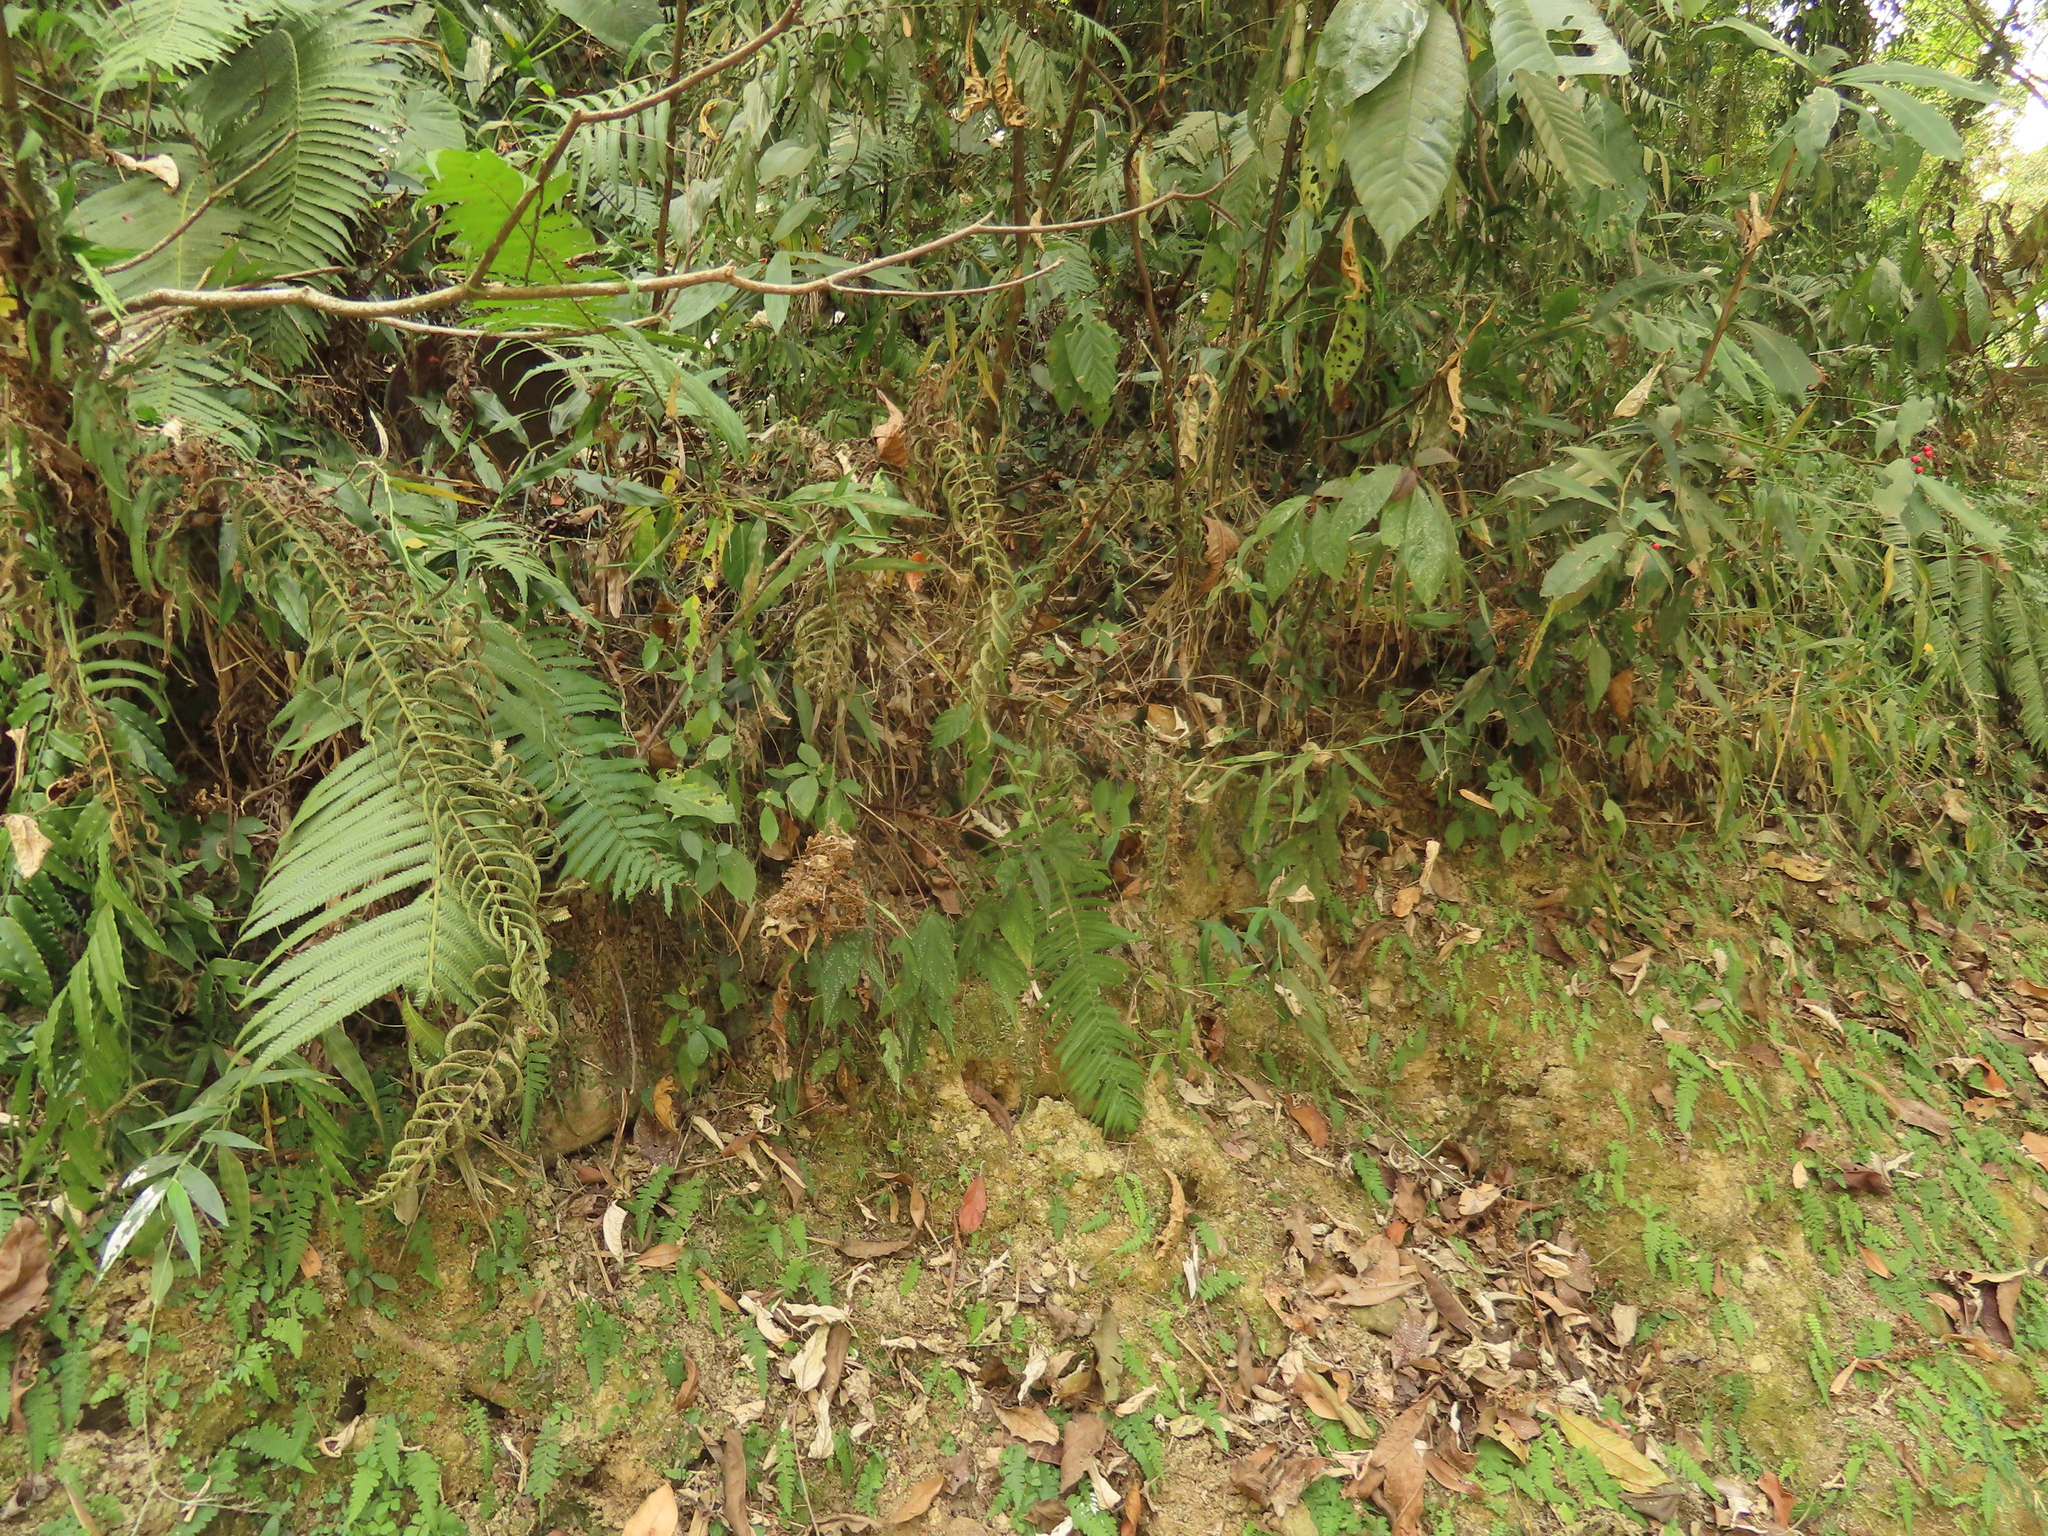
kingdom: Plantae
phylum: Tracheophyta
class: Magnoliopsida
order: Cucurbitales
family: Begoniaceae
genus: Begonia
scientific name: Begonia lukuana
